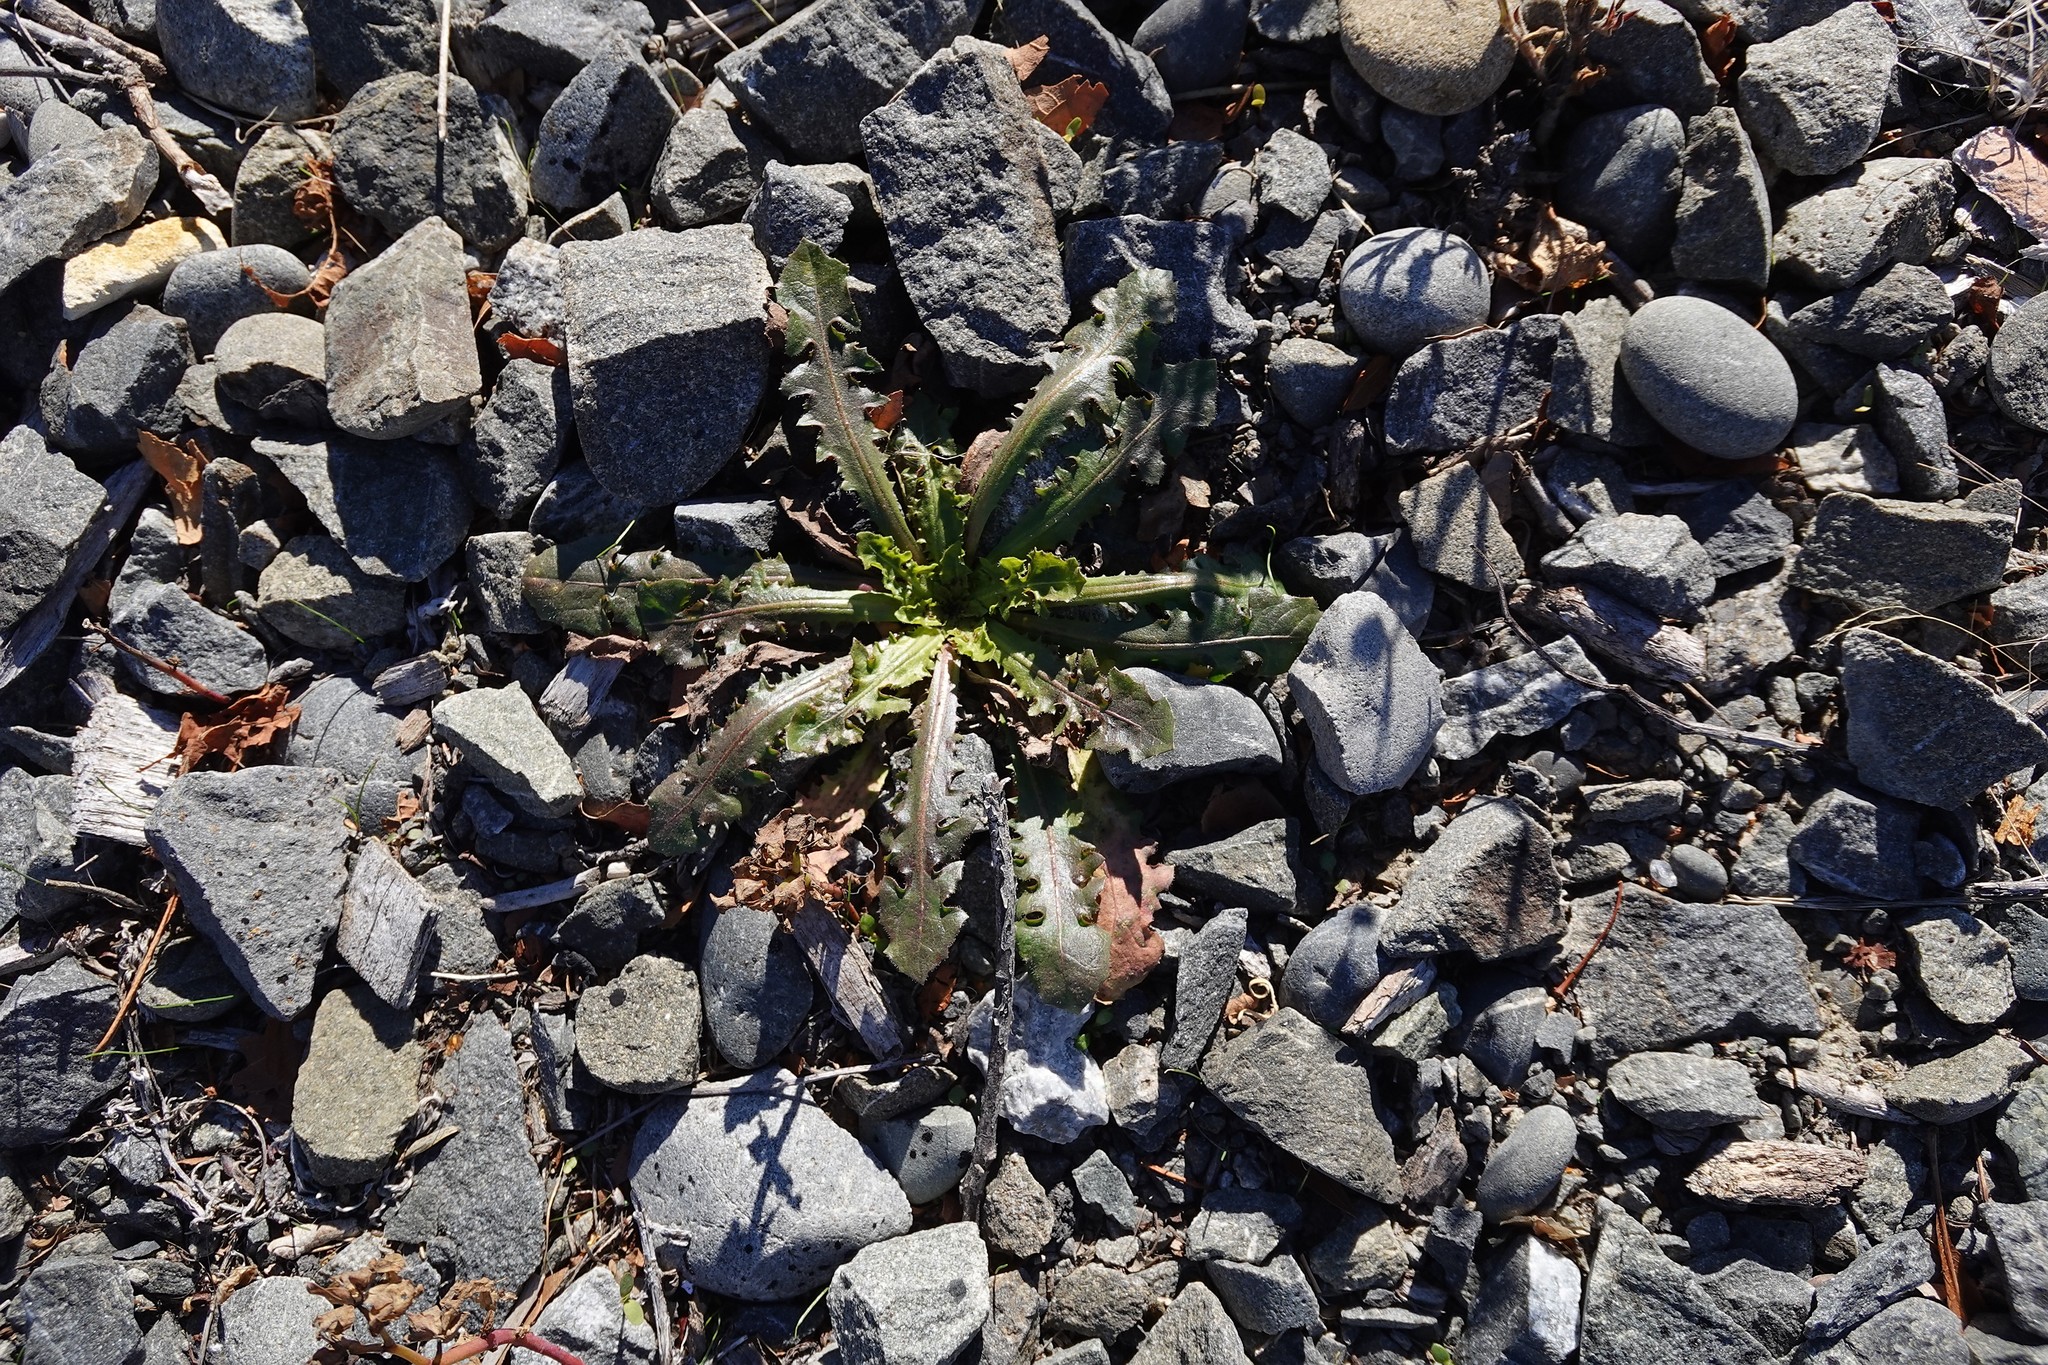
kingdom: Plantae
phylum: Tracheophyta
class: Magnoliopsida
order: Asterales
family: Asteraceae
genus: Taraxacum
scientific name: Taraxacum officinale
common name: Common dandelion
